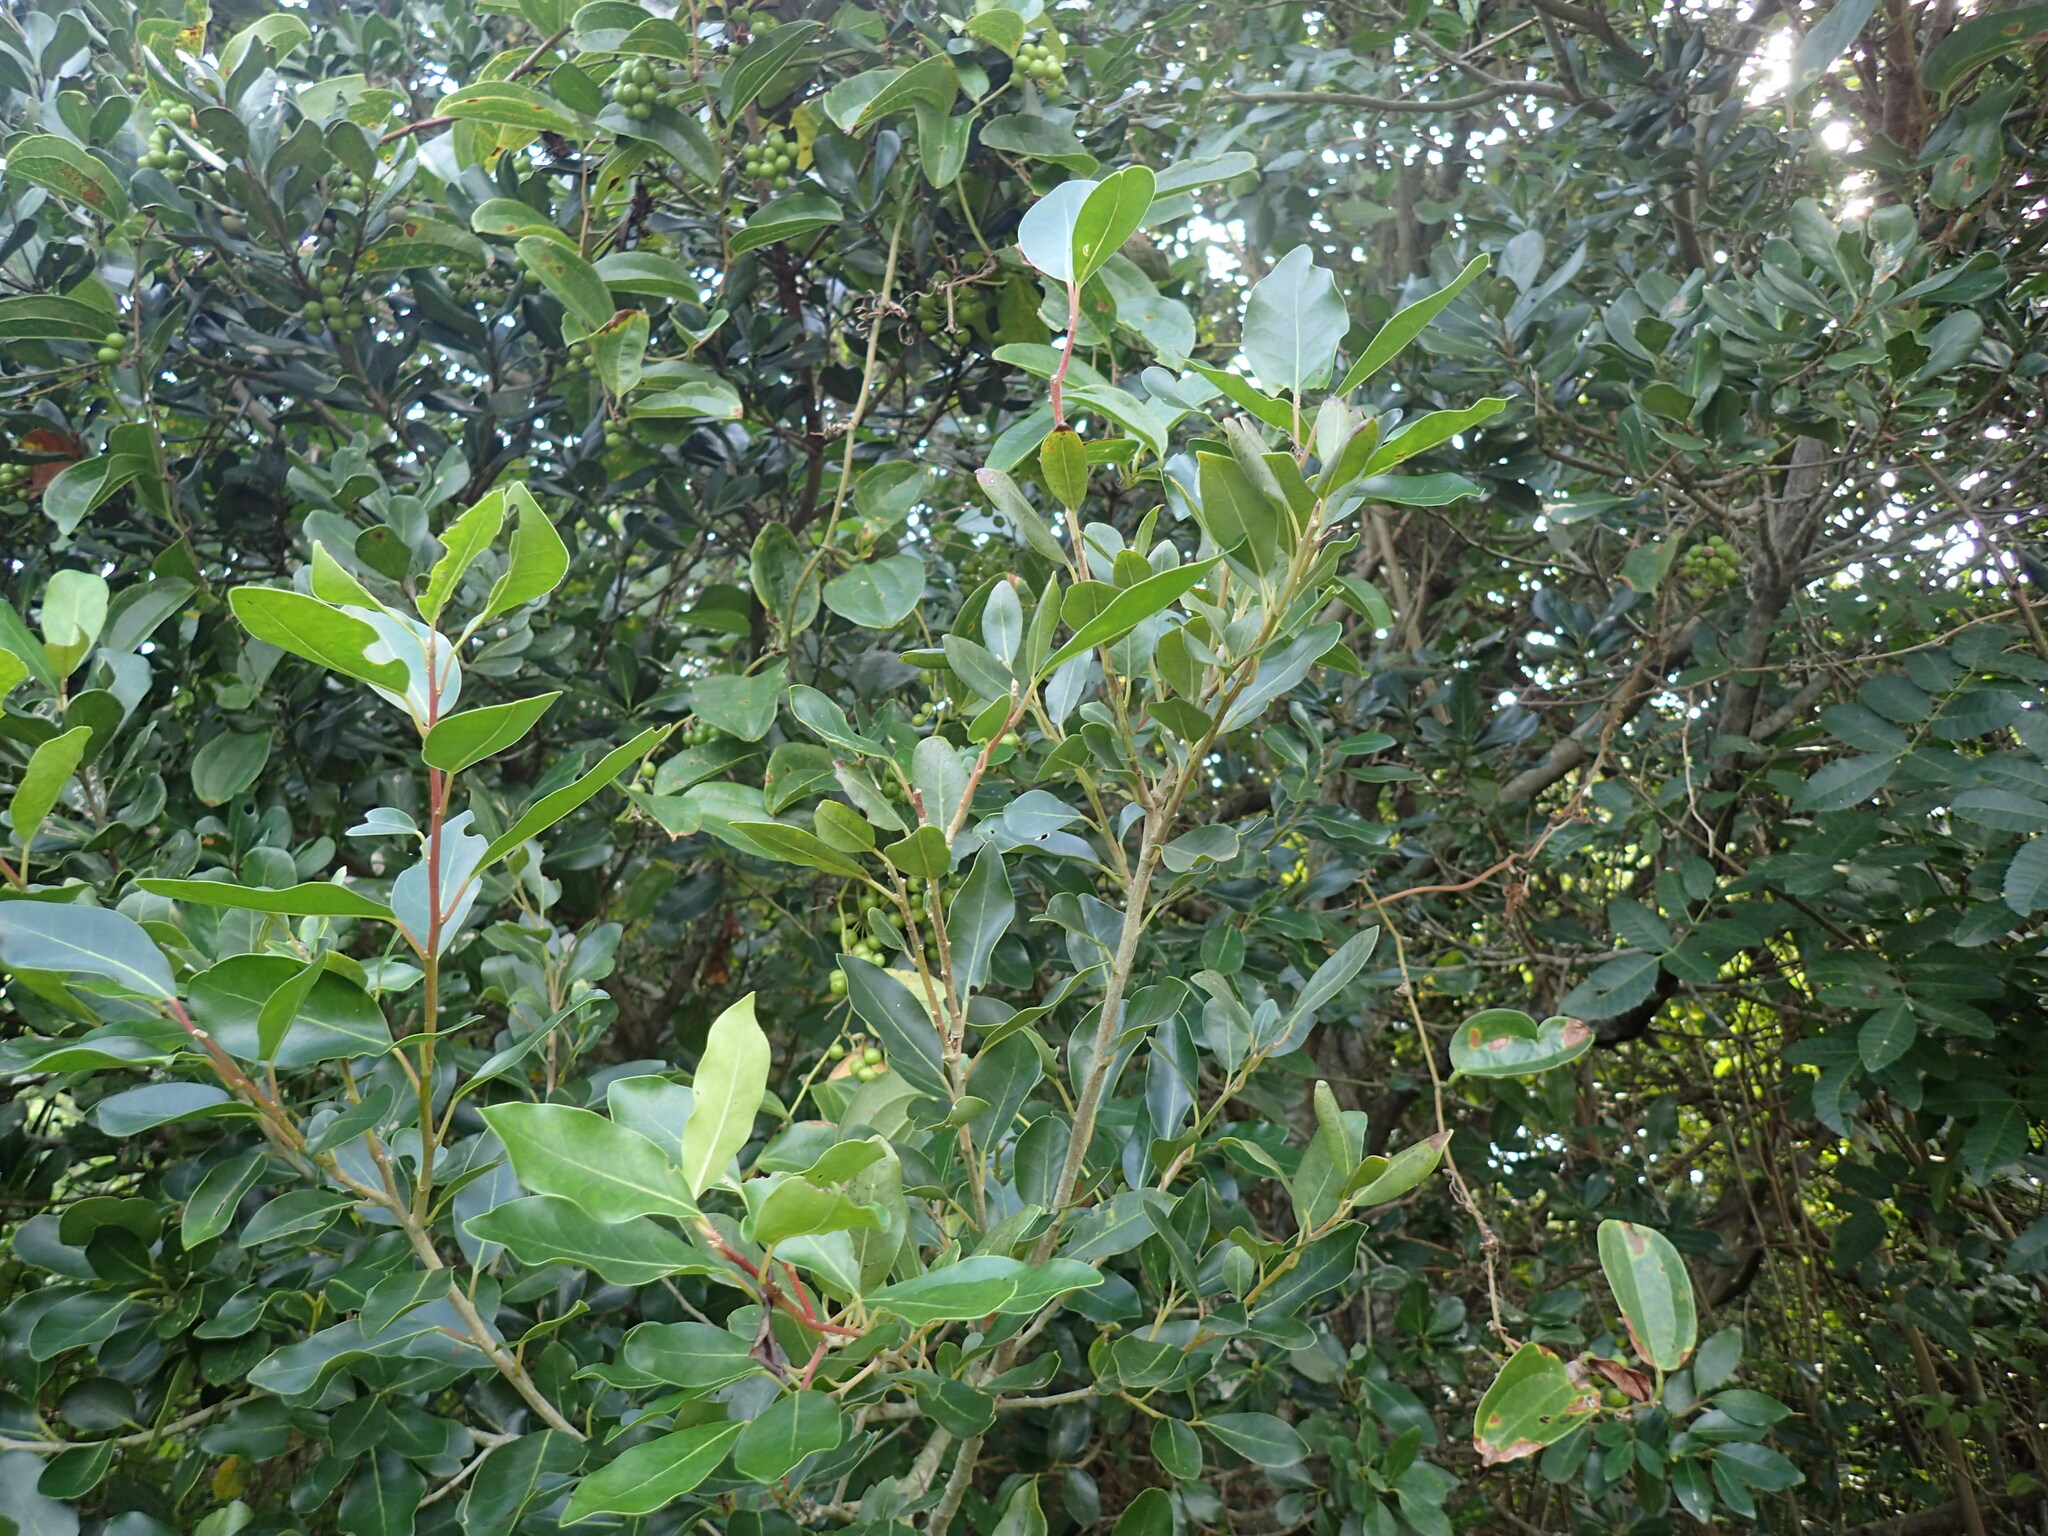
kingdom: Plantae
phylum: Tracheophyta
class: Magnoliopsida
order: Metteniusales
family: Metteniusaceae
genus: Apodytes
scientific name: Apodytes dimidiata
